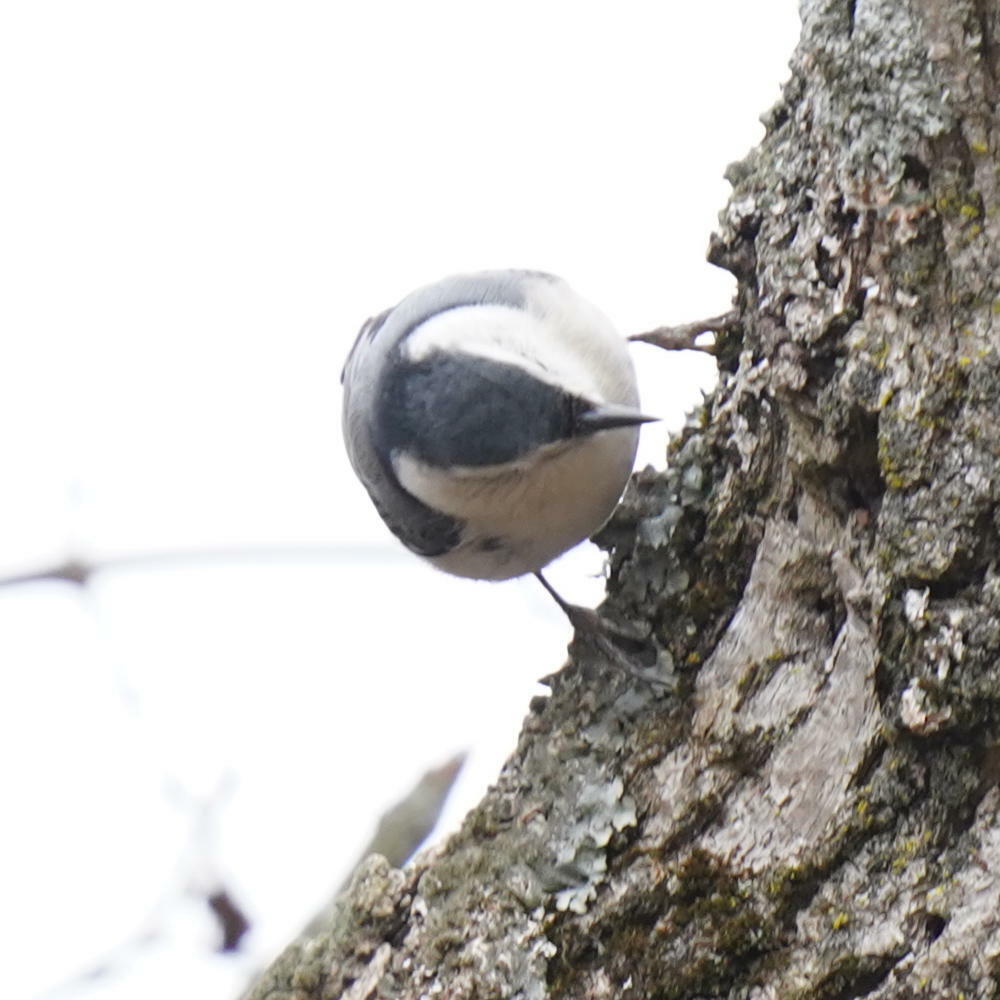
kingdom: Animalia
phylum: Chordata
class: Aves
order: Passeriformes
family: Sittidae
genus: Sitta
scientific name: Sitta carolinensis
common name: White-breasted nuthatch
